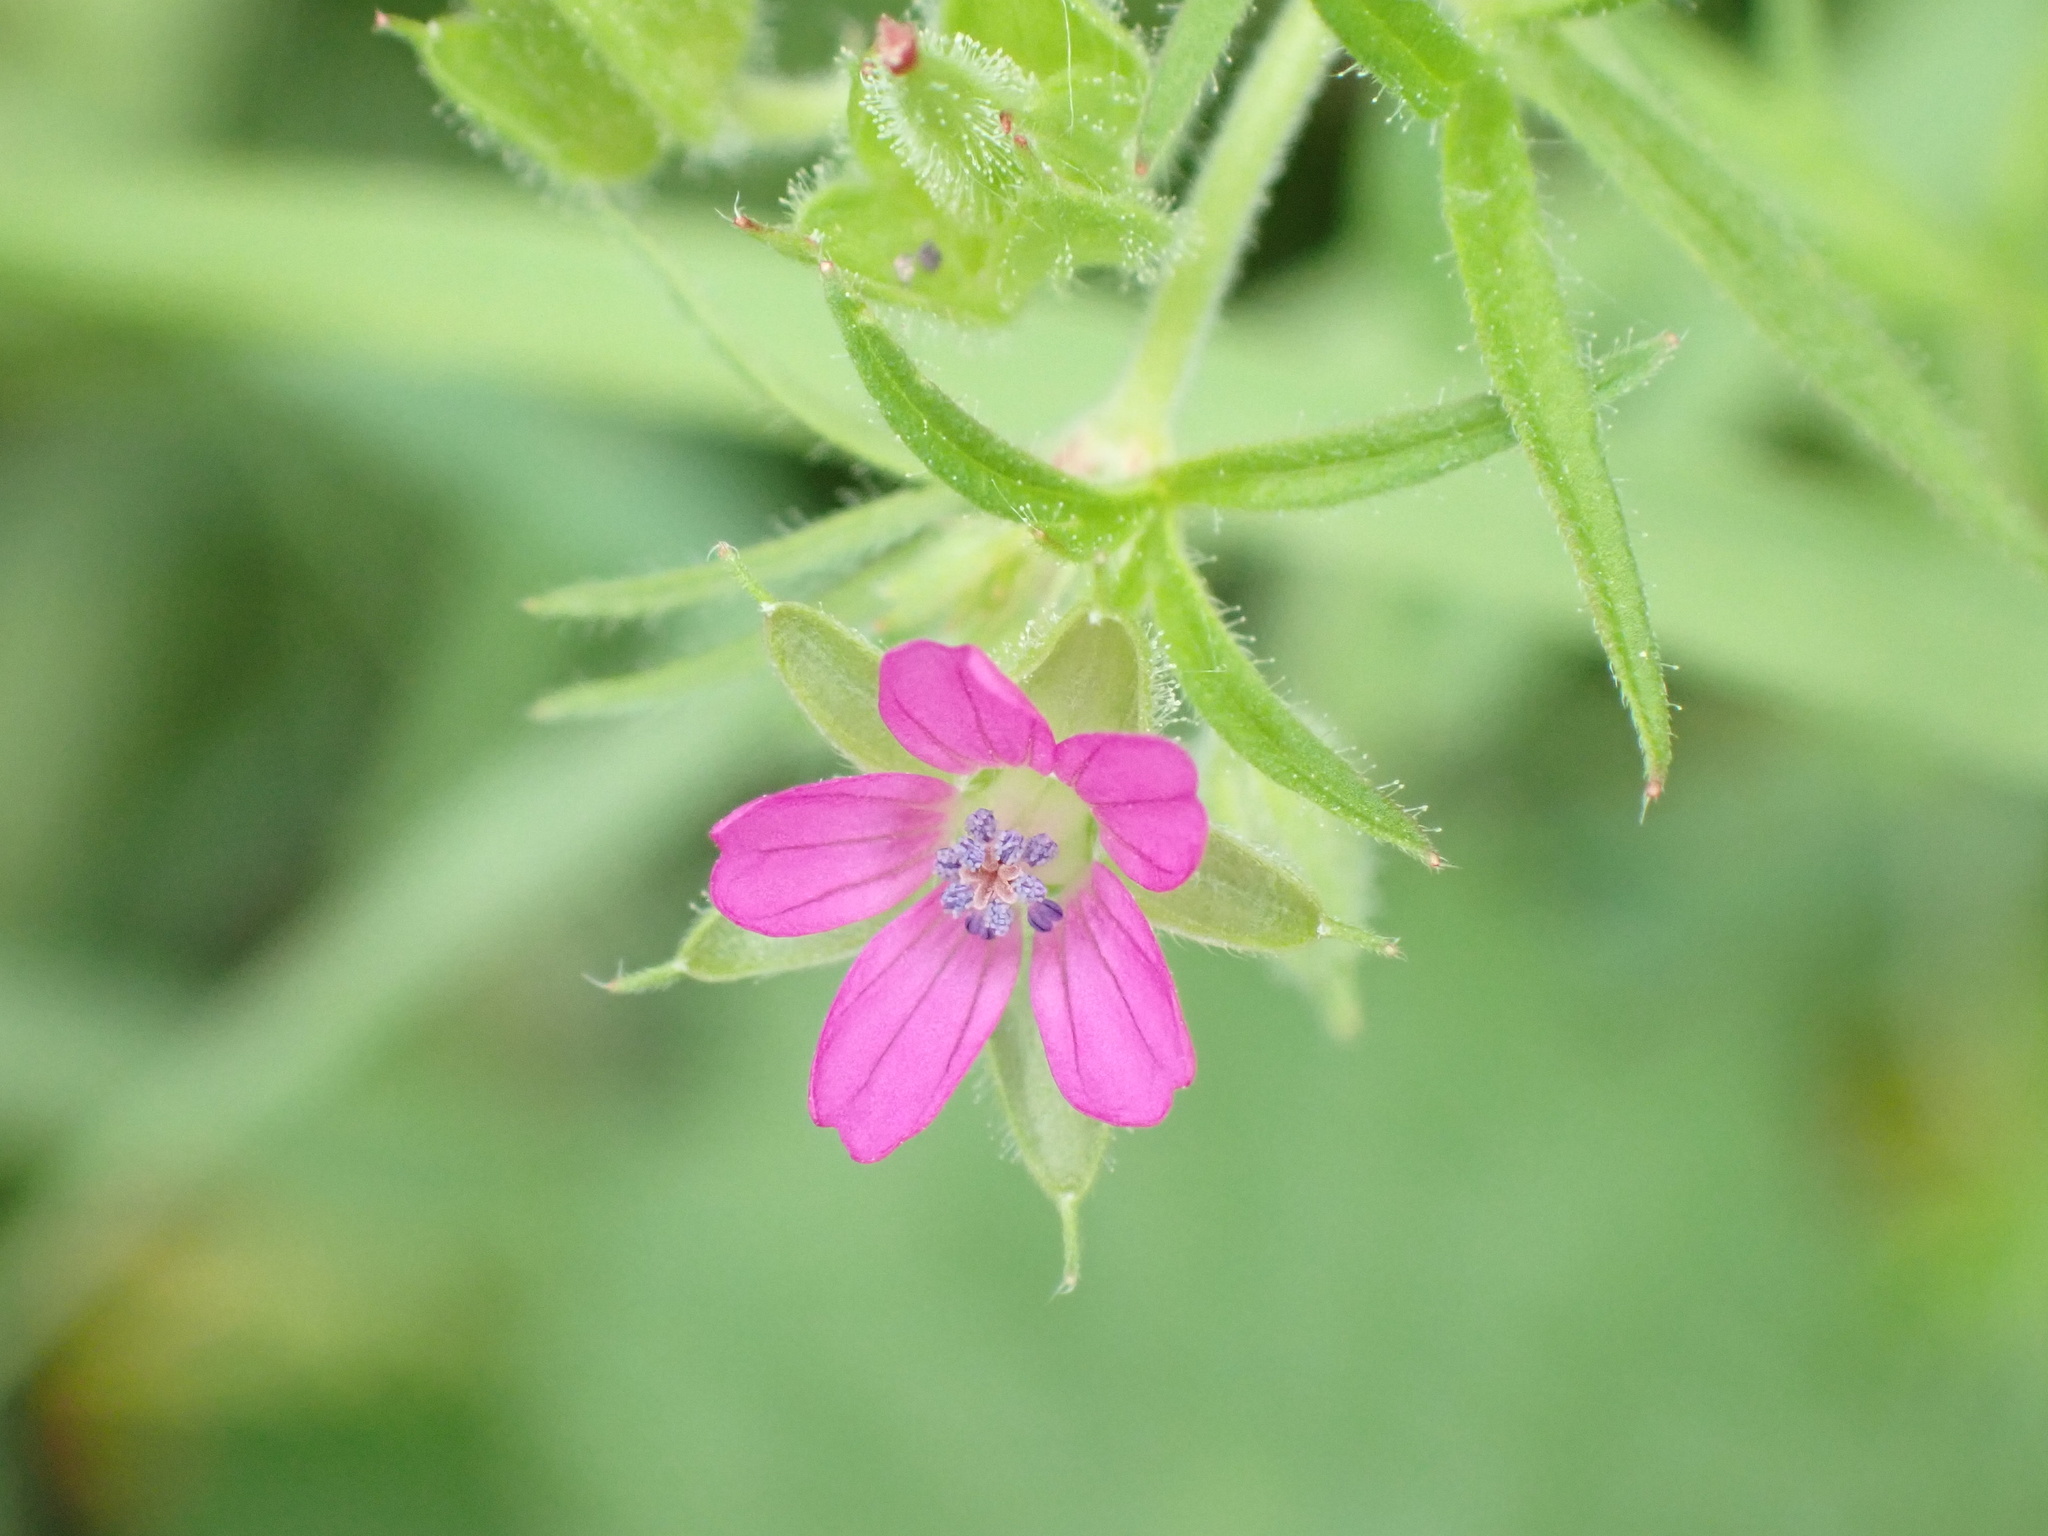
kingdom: Plantae
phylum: Tracheophyta
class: Magnoliopsida
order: Geraniales
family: Geraniaceae
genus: Geranium
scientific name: Geranium dissectum
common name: Cut-leaved crane's-bill
